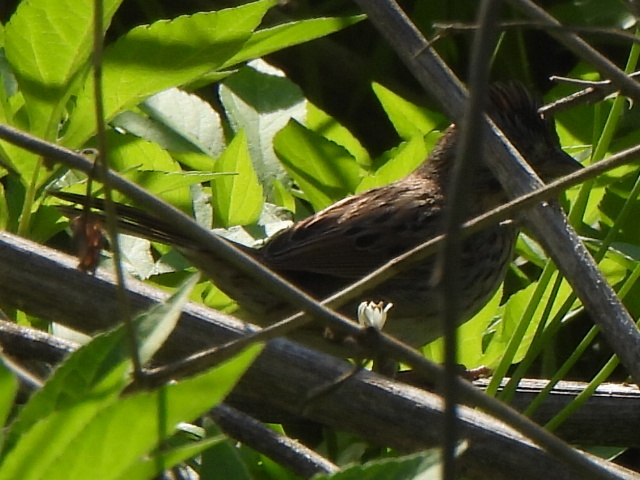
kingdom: Animalia
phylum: Chordata
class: Aves
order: Passeriformes
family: Passerellidae
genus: Melospiza
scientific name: Melospiza lincolnii
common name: Lincoln's sparrow
